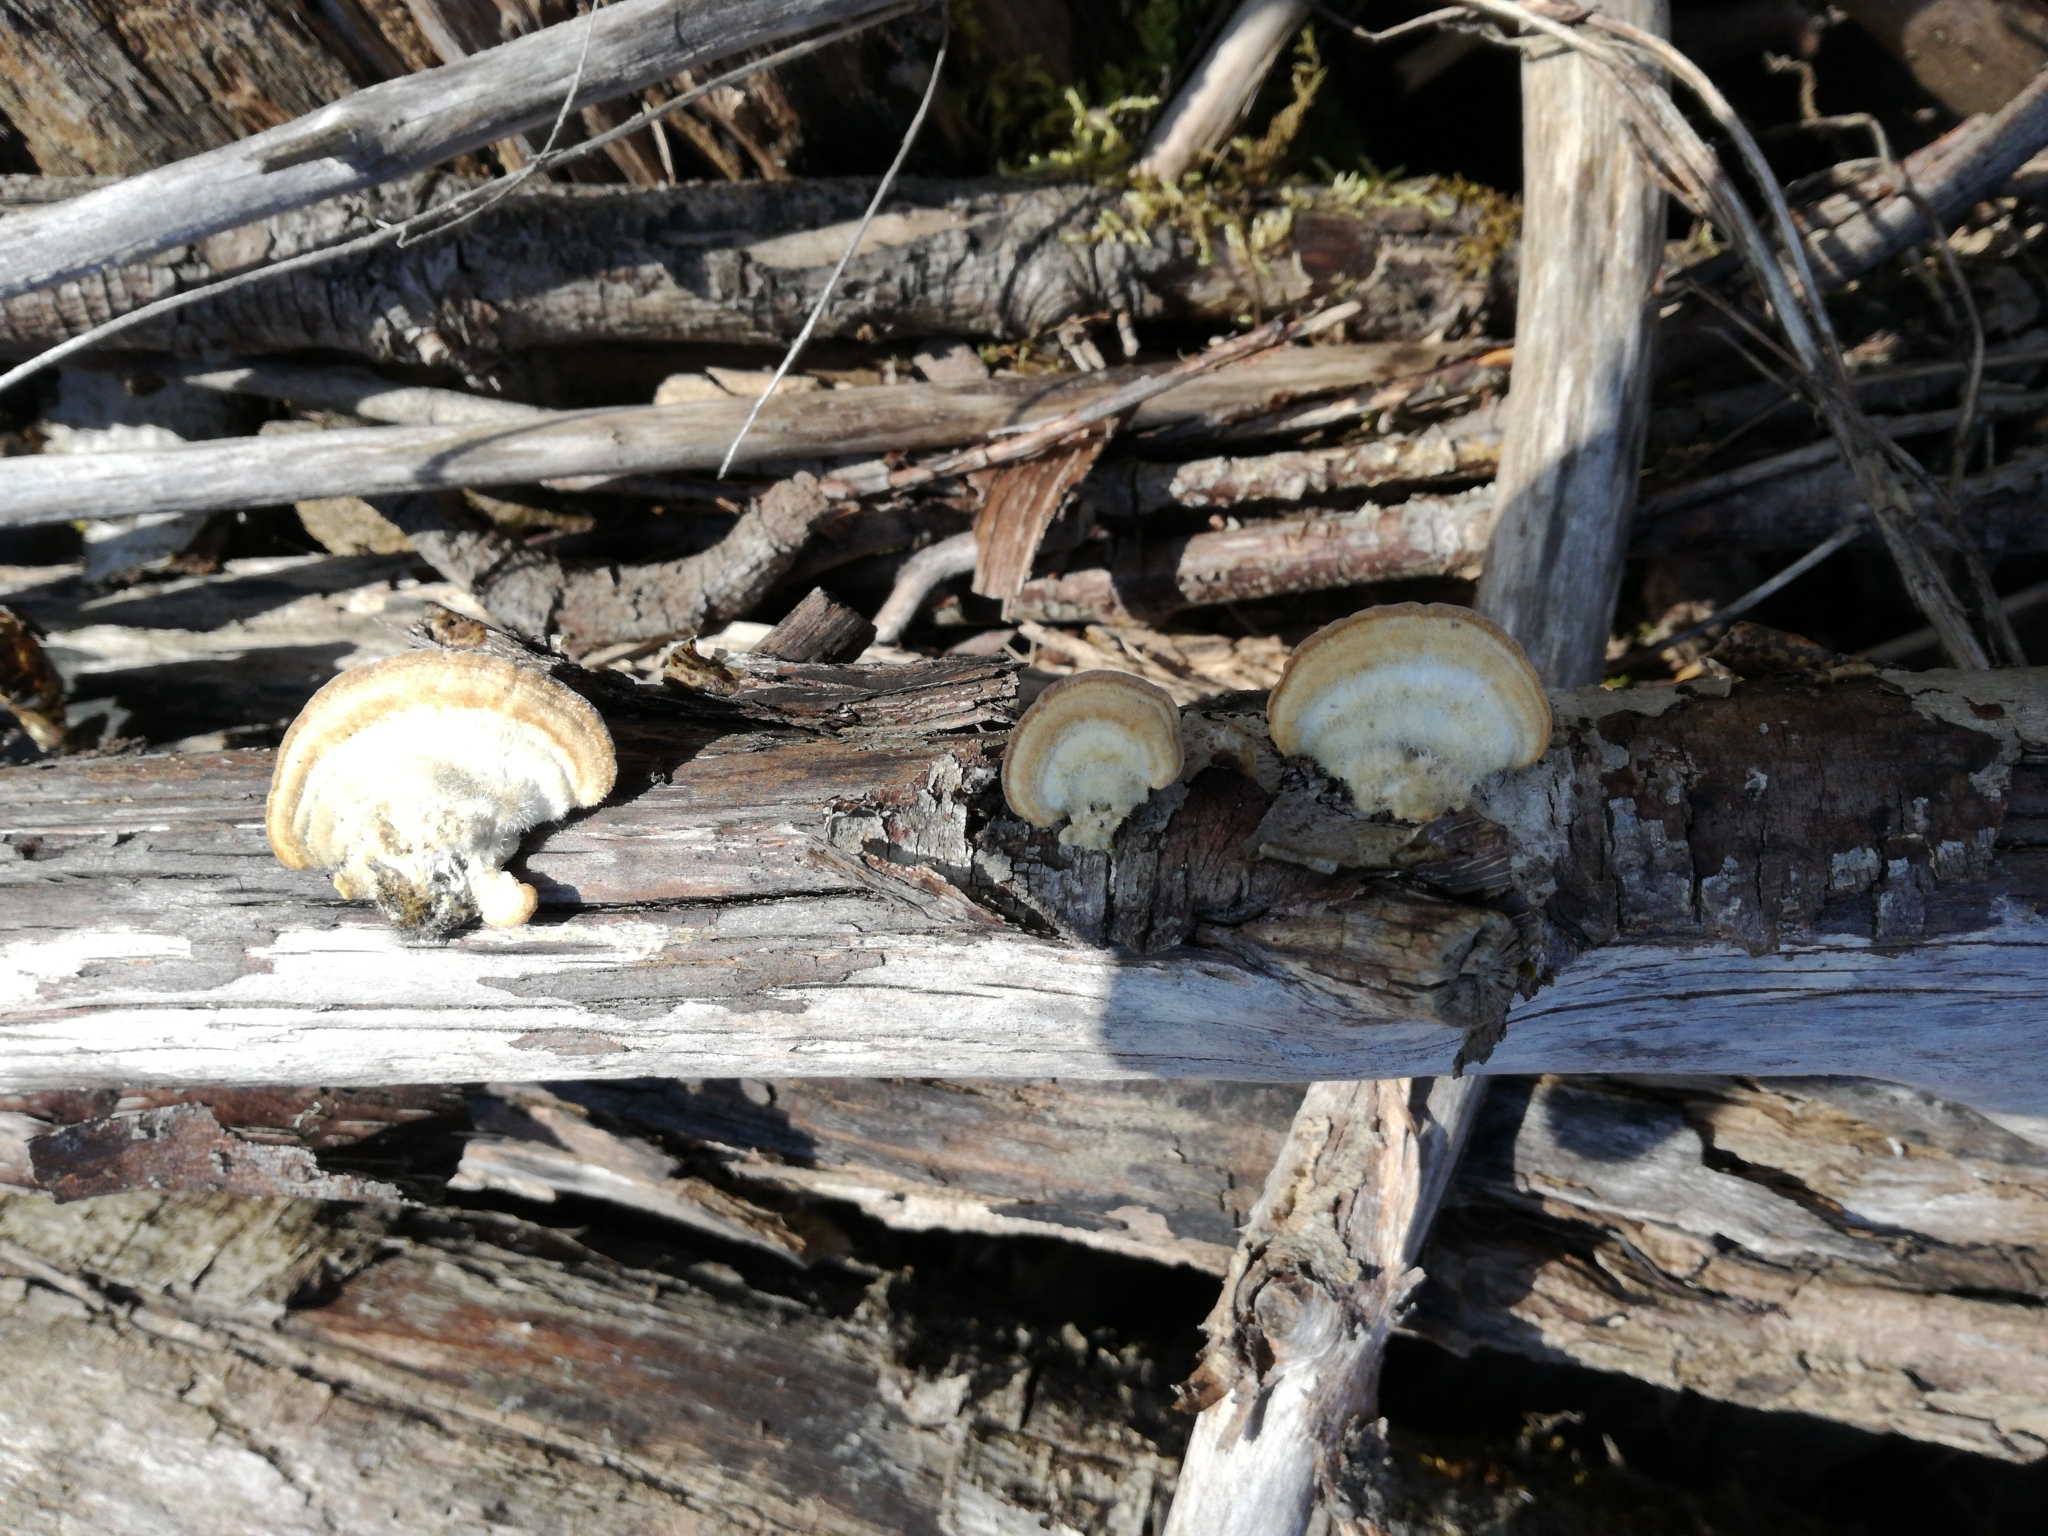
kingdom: Fungi
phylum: Basidiomycota
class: Agaricomycetes
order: Polyporales
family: Polyporaceae
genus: Trametes
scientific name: Trametes hirsuta
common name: Hairy bracket
